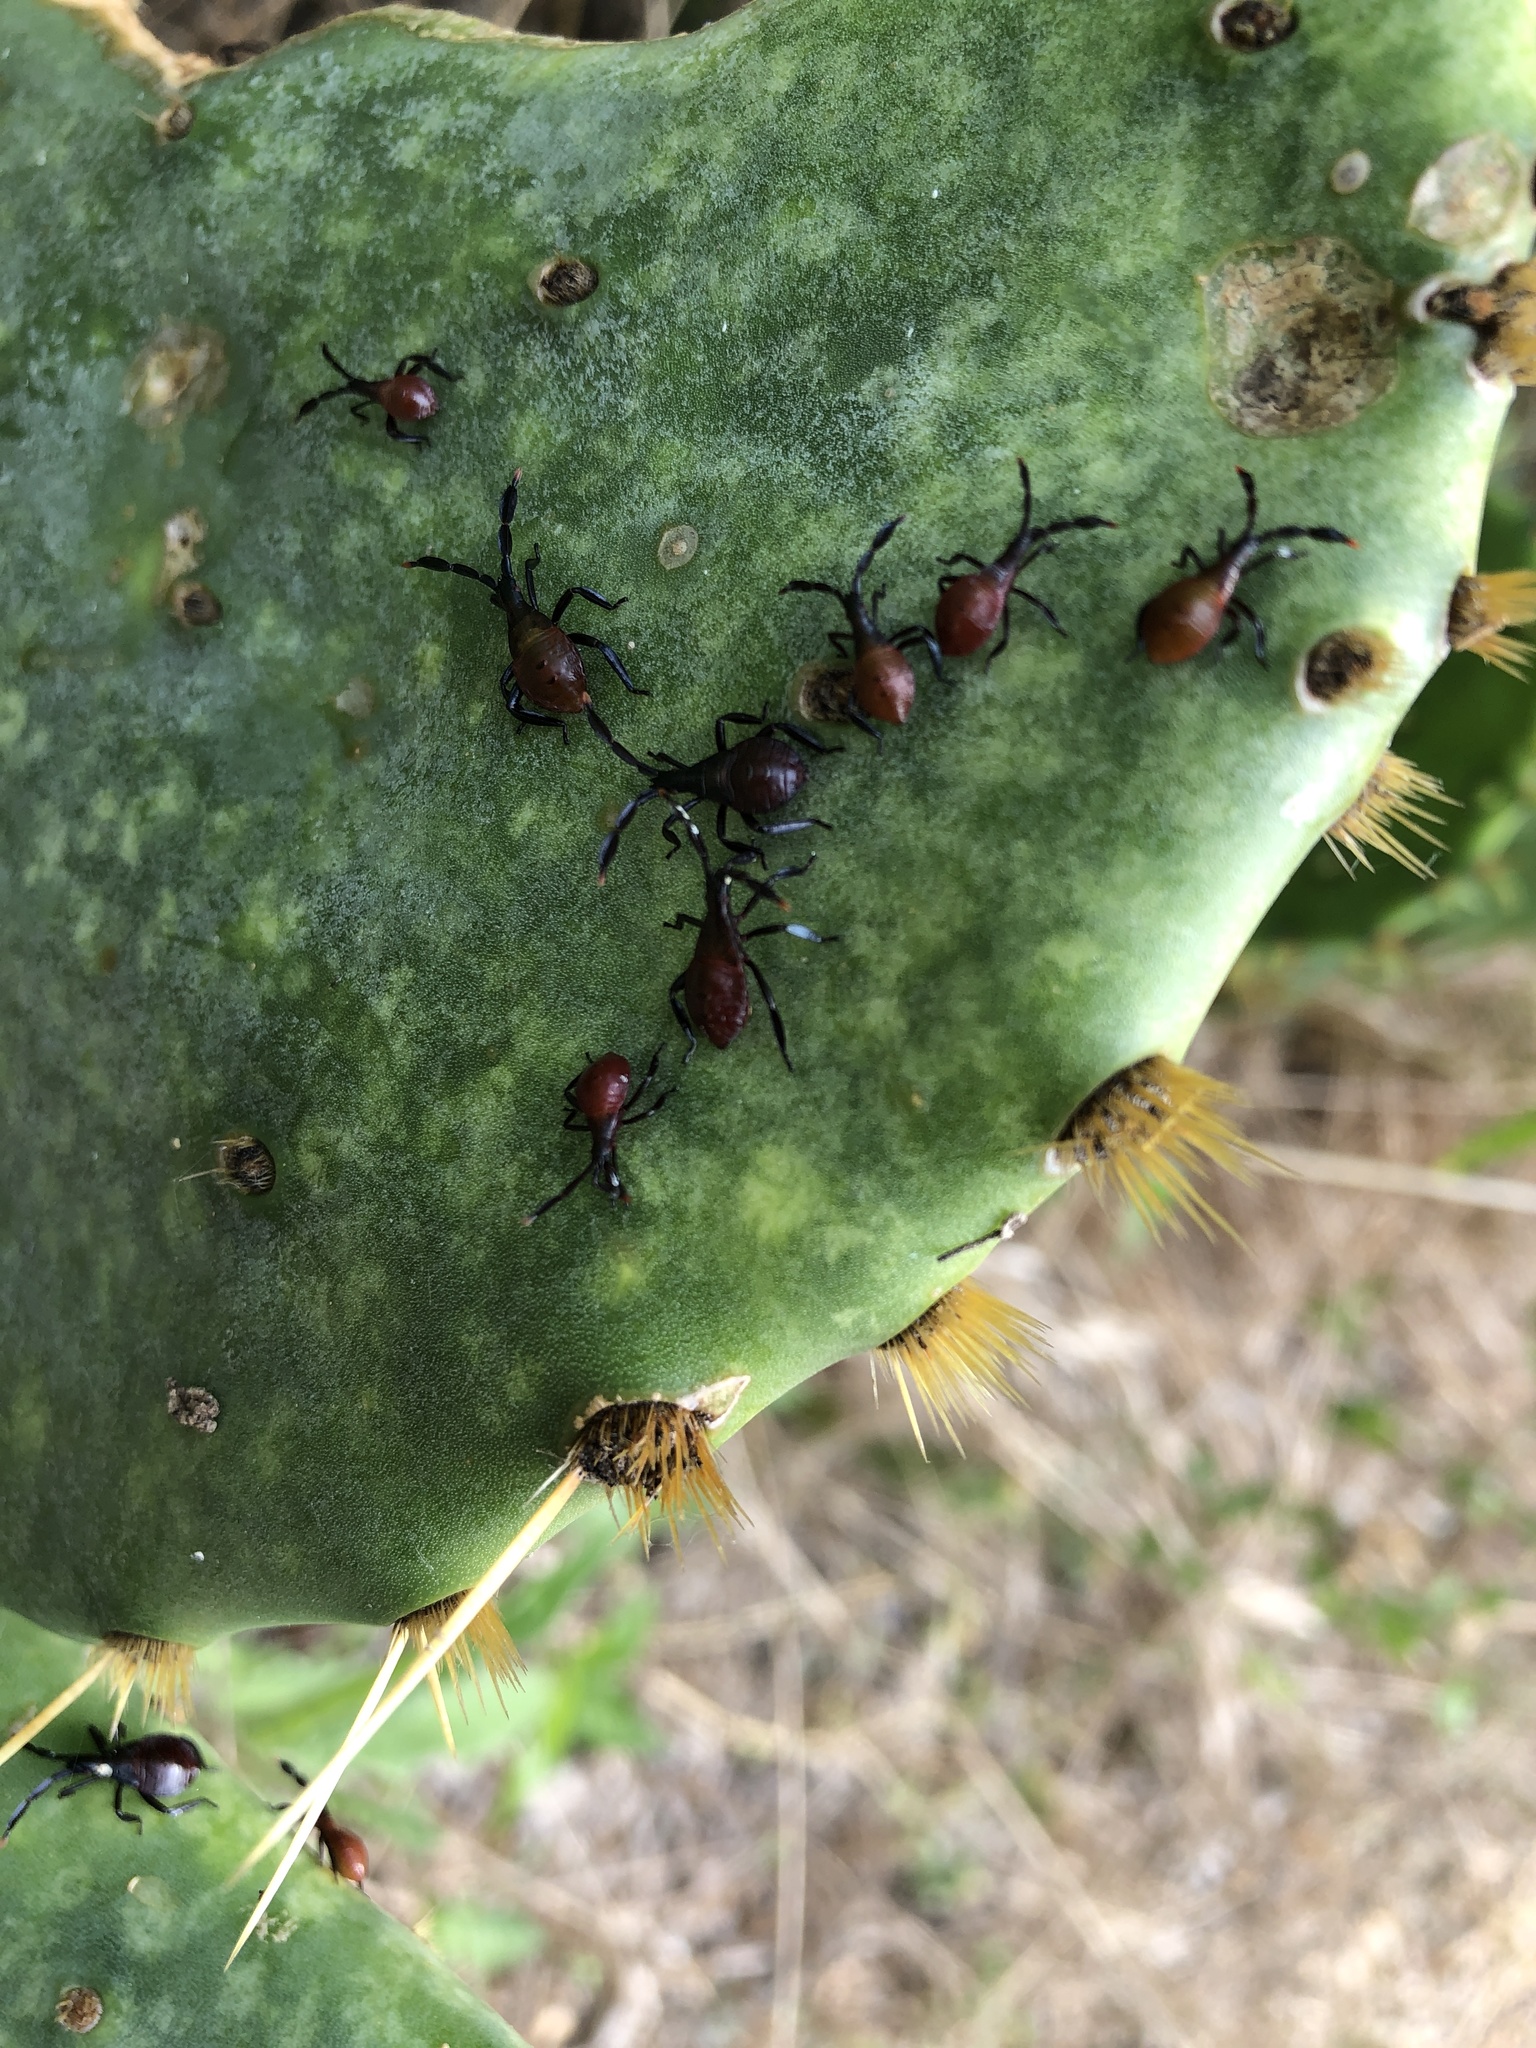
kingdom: Animalia
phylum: Arthropoda
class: Insecta
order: Hemiptera
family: Coreidae
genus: Chelinidea
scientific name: Chelinidea vittiger
